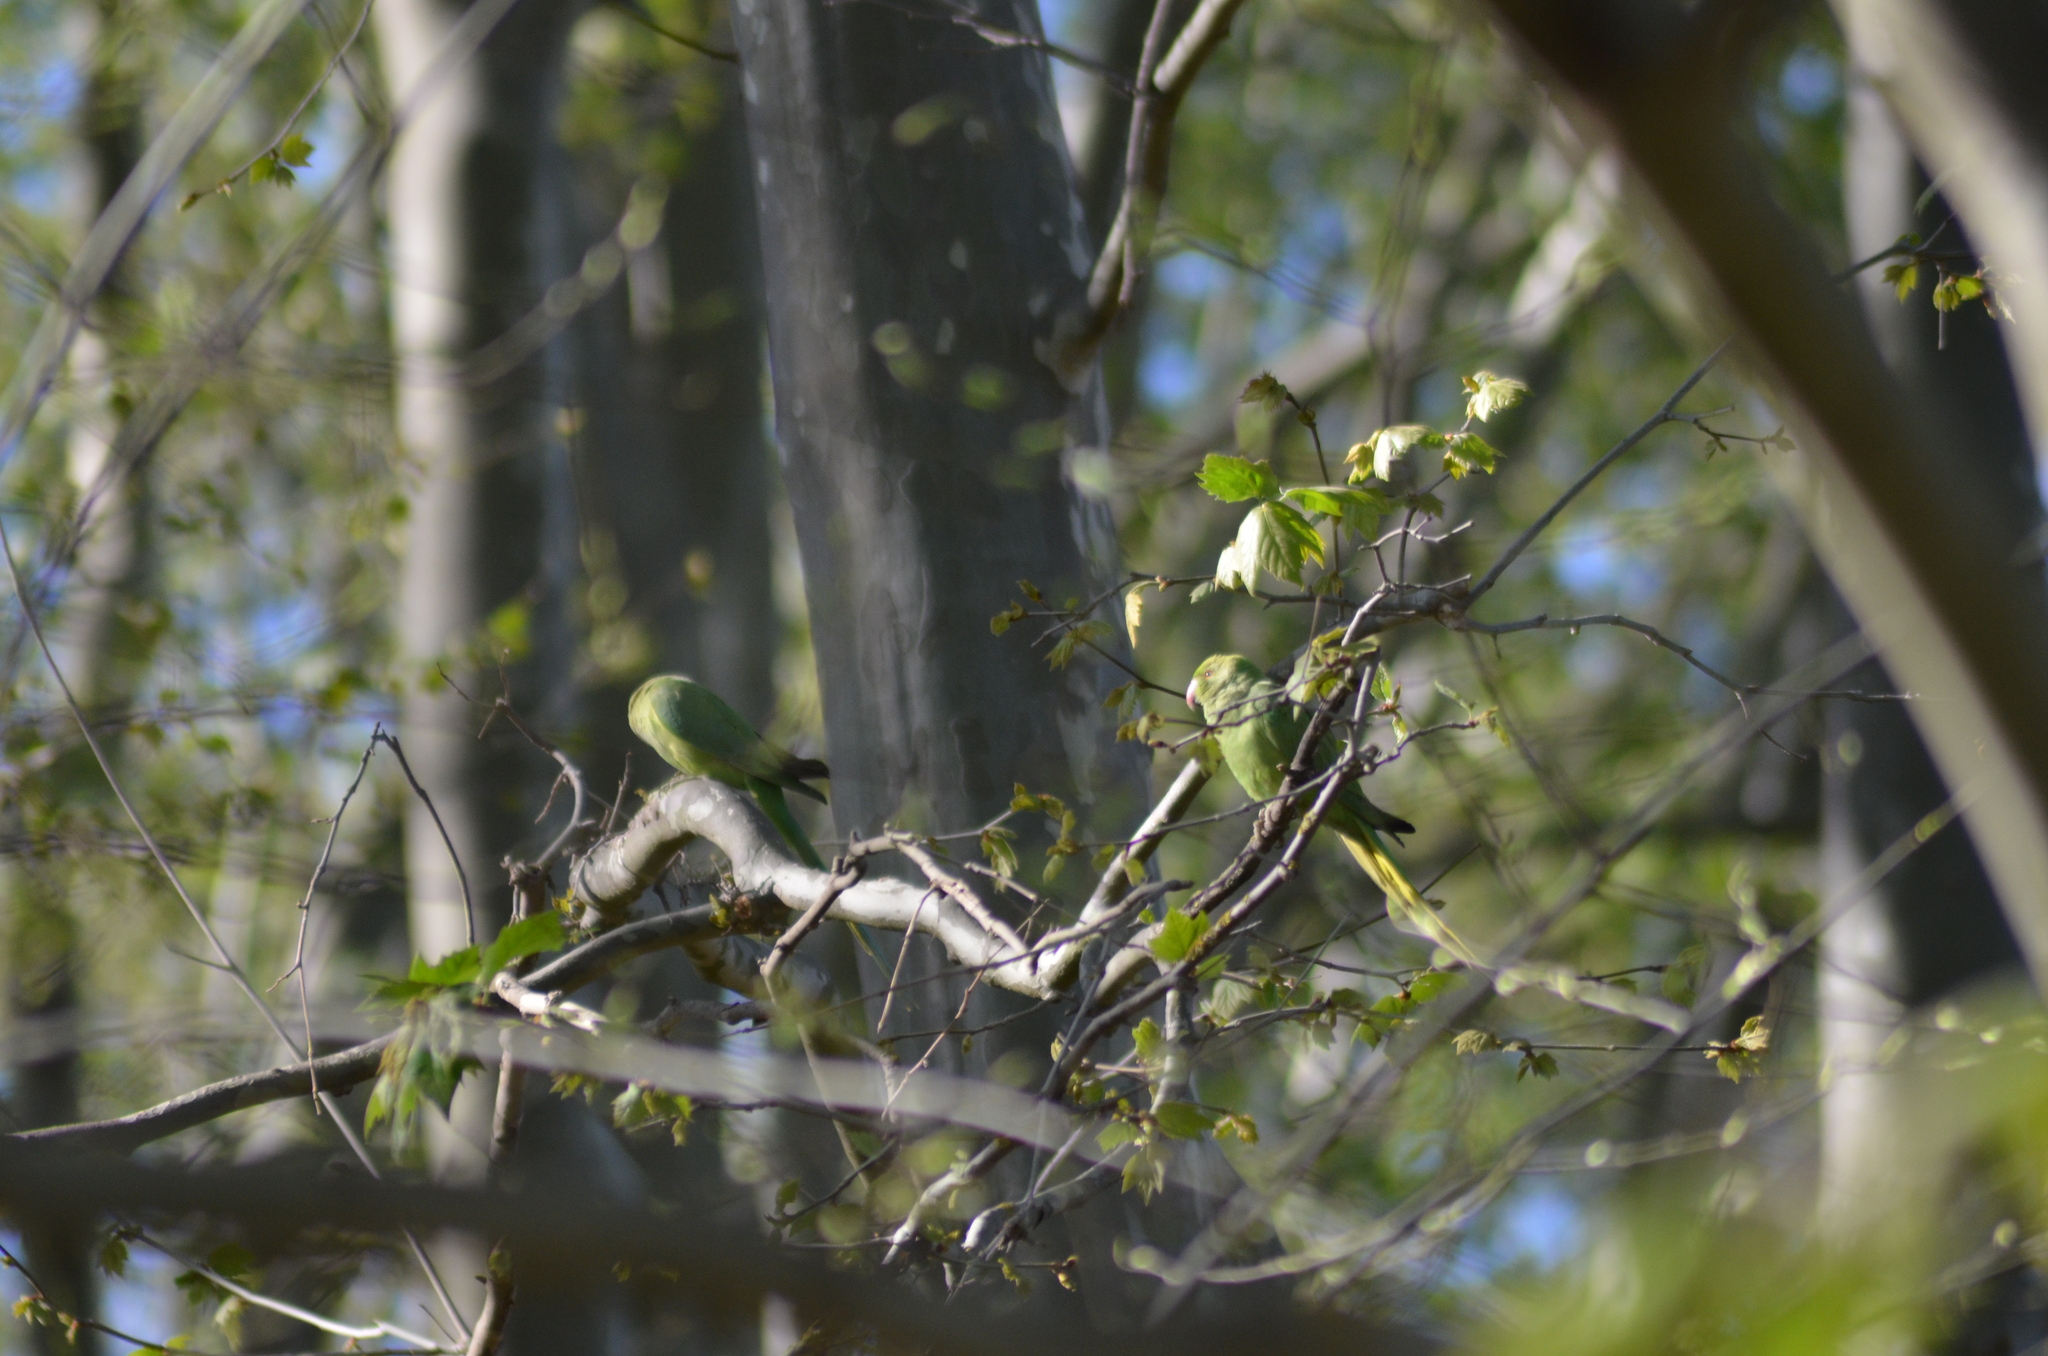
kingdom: Animalia
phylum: Chordata
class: Aves
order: Psittaciformes
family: Psittacidae
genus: Psittacula
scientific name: Psittacula krameri
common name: Rose-ringed parakeet
